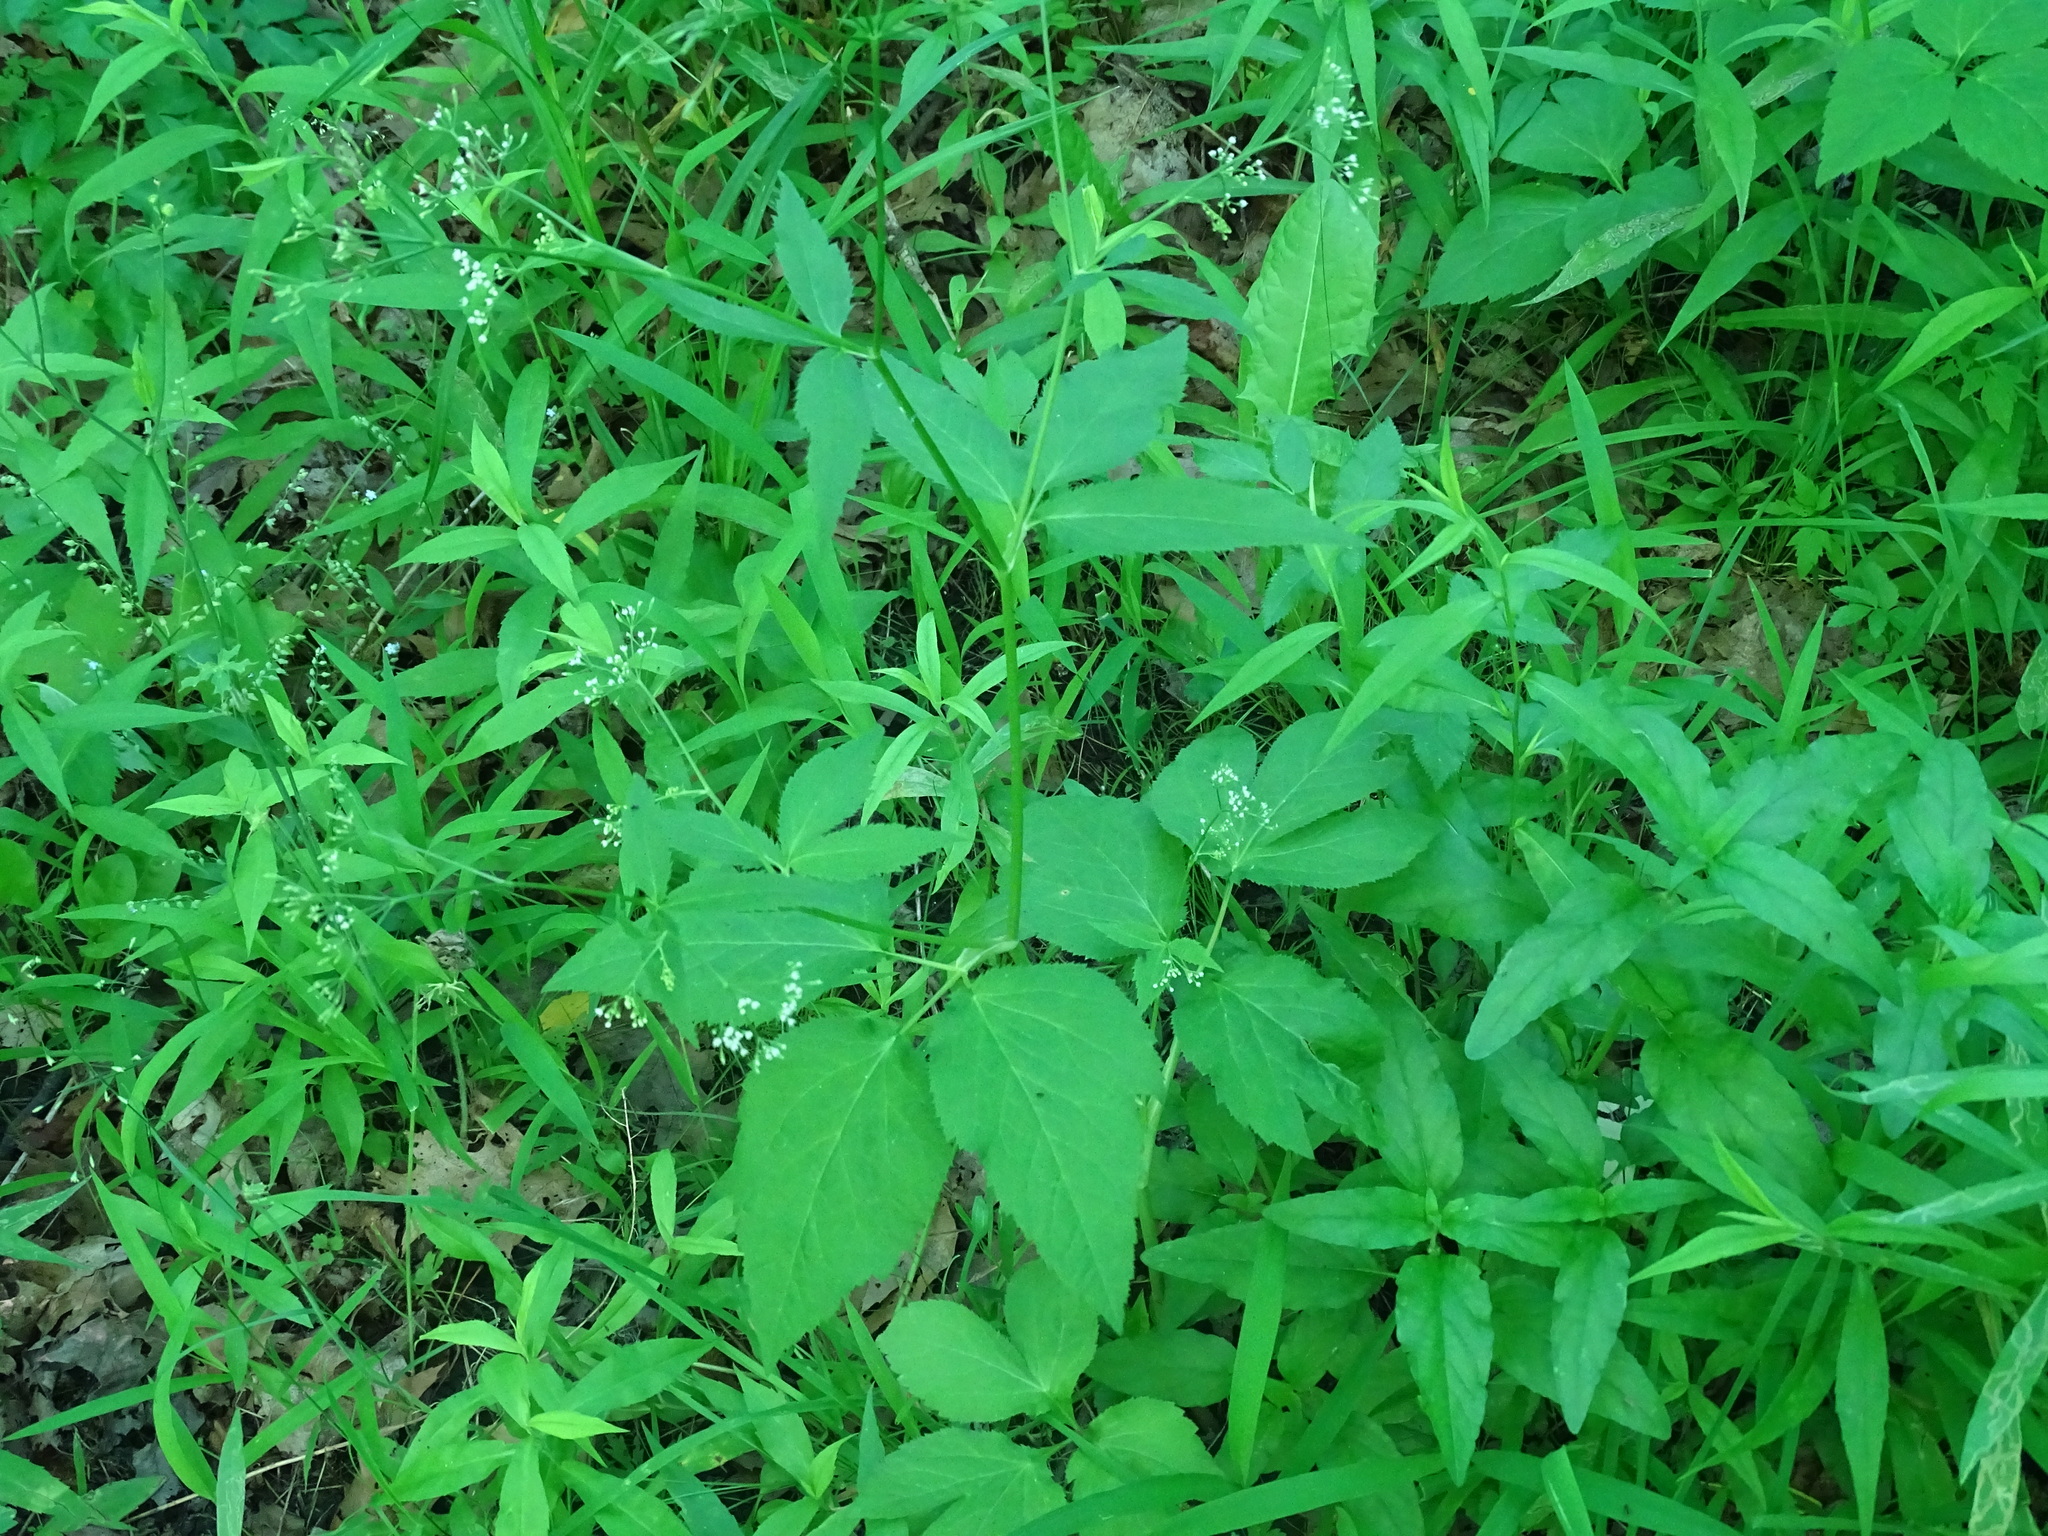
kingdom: Plantae
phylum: Tracheophyta
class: Magnoliopsida
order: Apiales
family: Apiaceae
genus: Cryptotaenia
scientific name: Cryptotaenia canadensis
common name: Honewort
